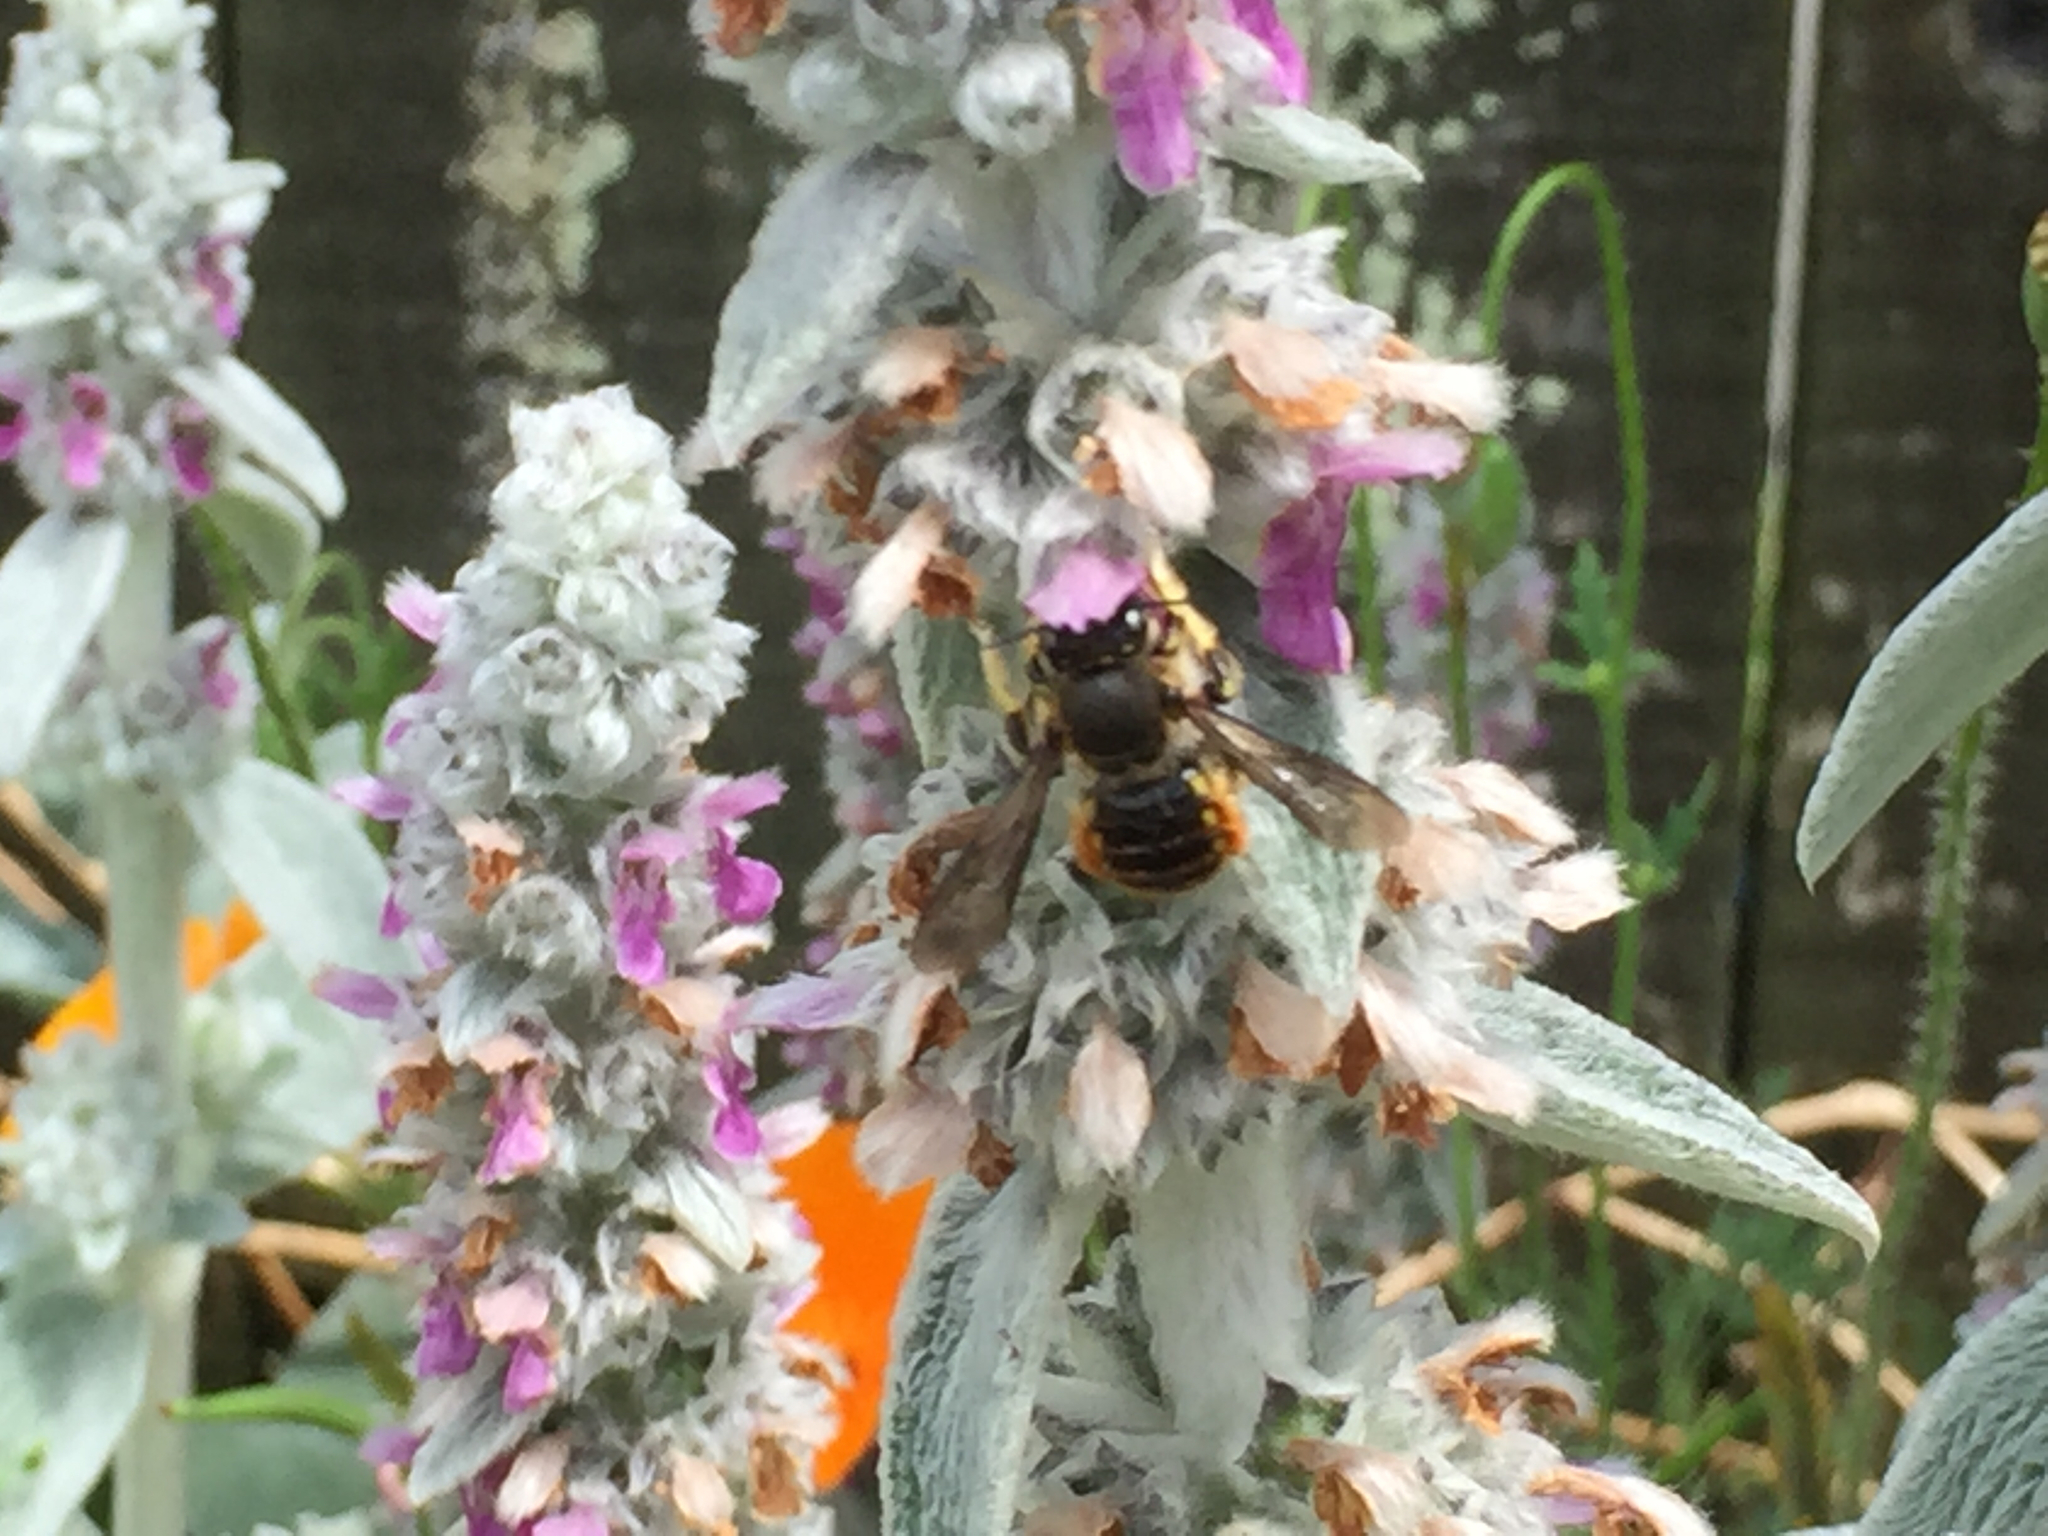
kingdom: Animalia
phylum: Arthropoda
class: Insecta
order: Hymenoptera
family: Megachilidae
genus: Anthidium
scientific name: Anthidium manicatum
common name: Wool carder bee
